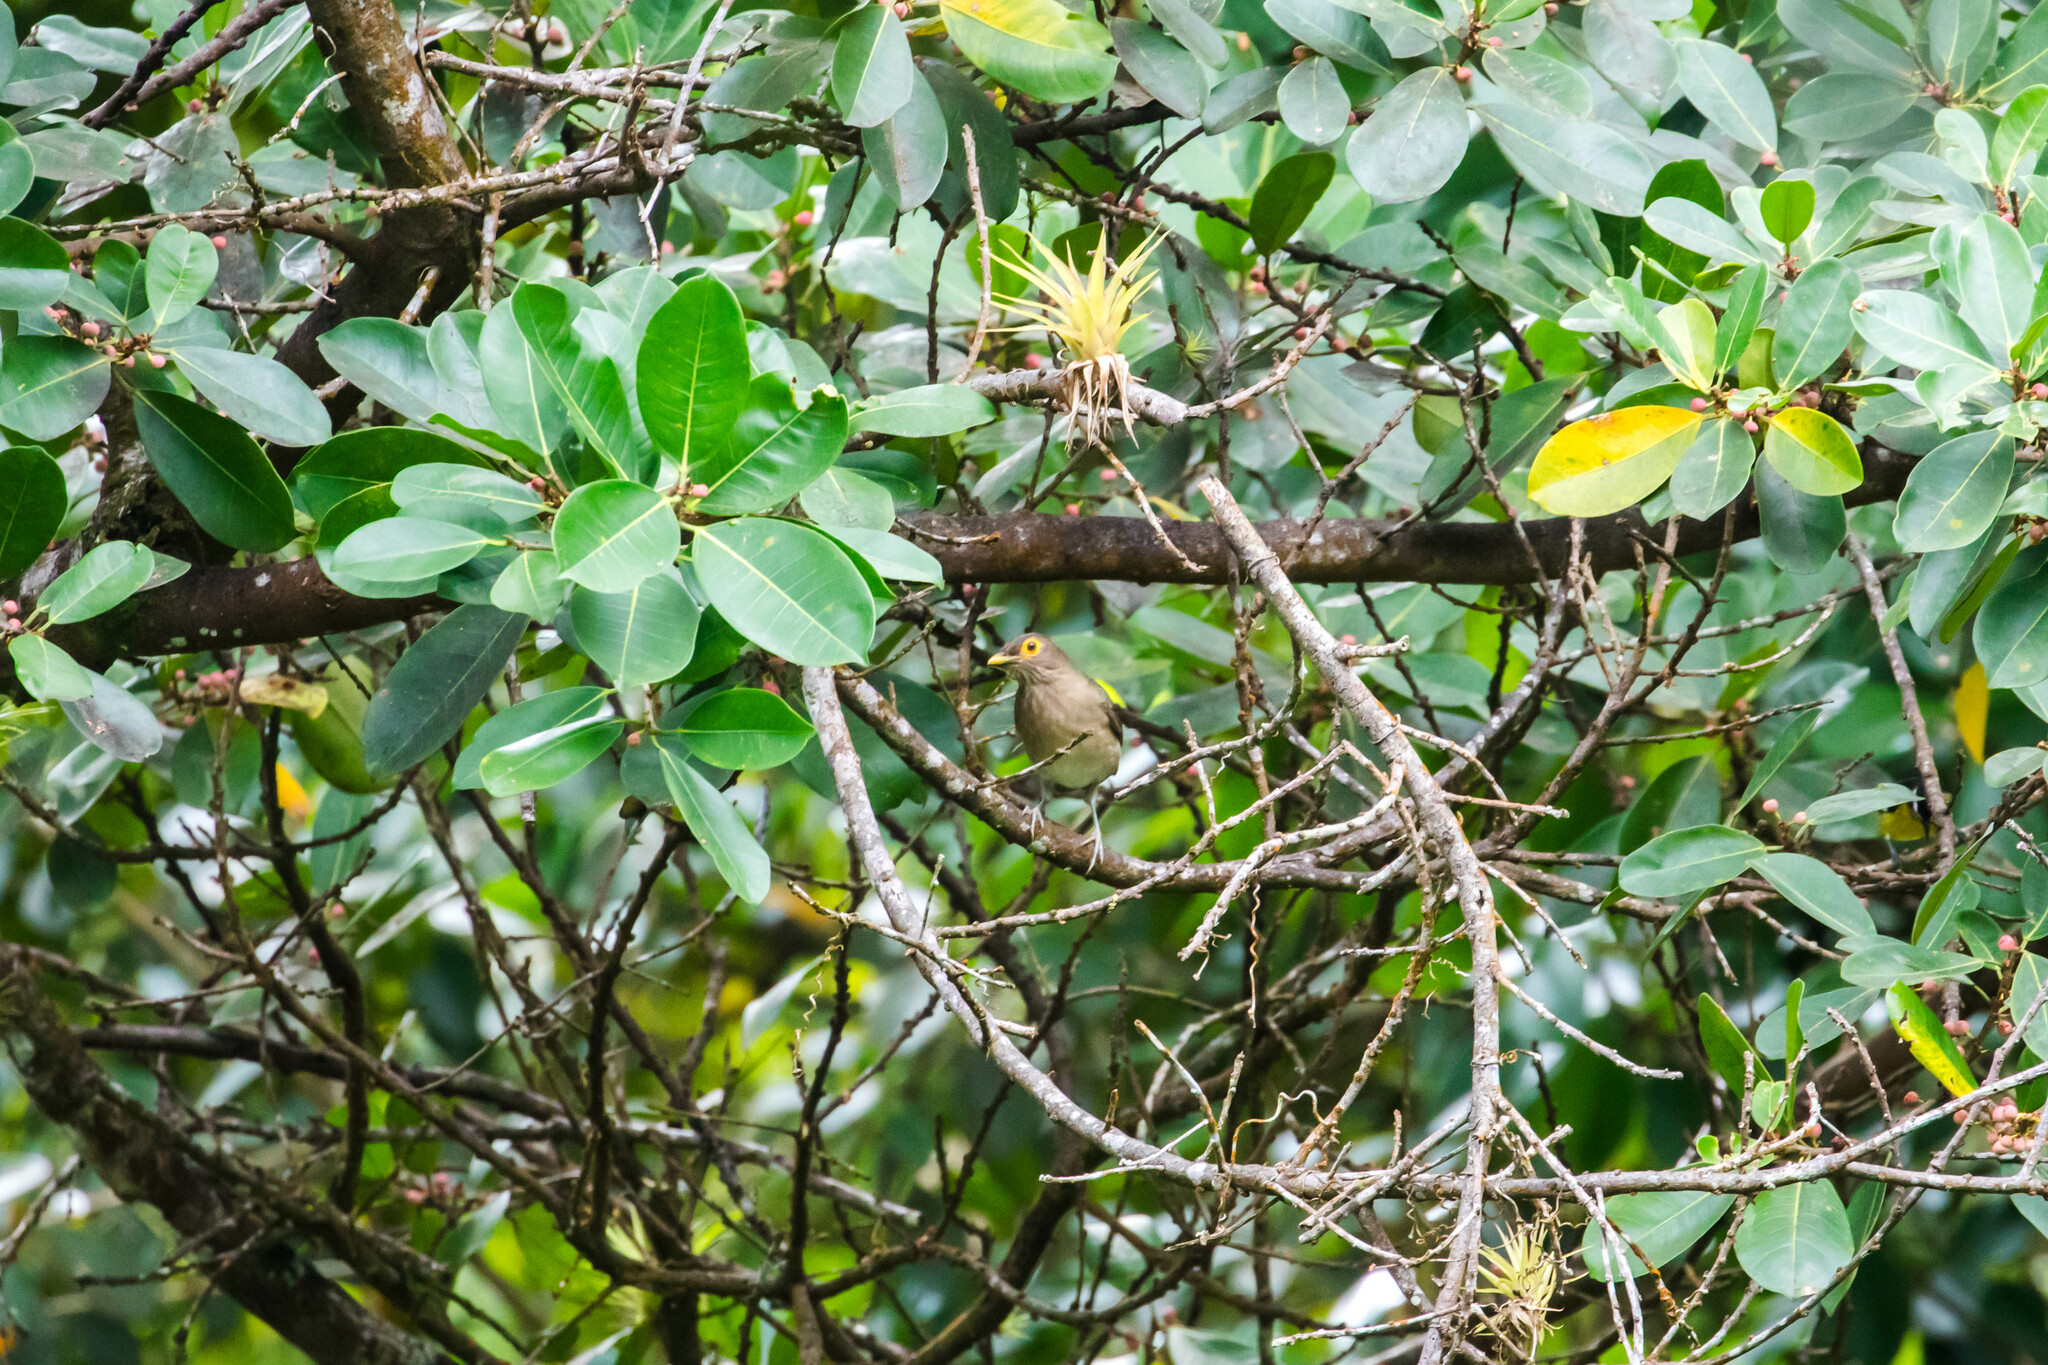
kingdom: Animalia
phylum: Chordata
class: Aves
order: Passeriformes
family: Turdidae
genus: Turdus
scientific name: Turdus nudigenis
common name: Spectacled thrush
